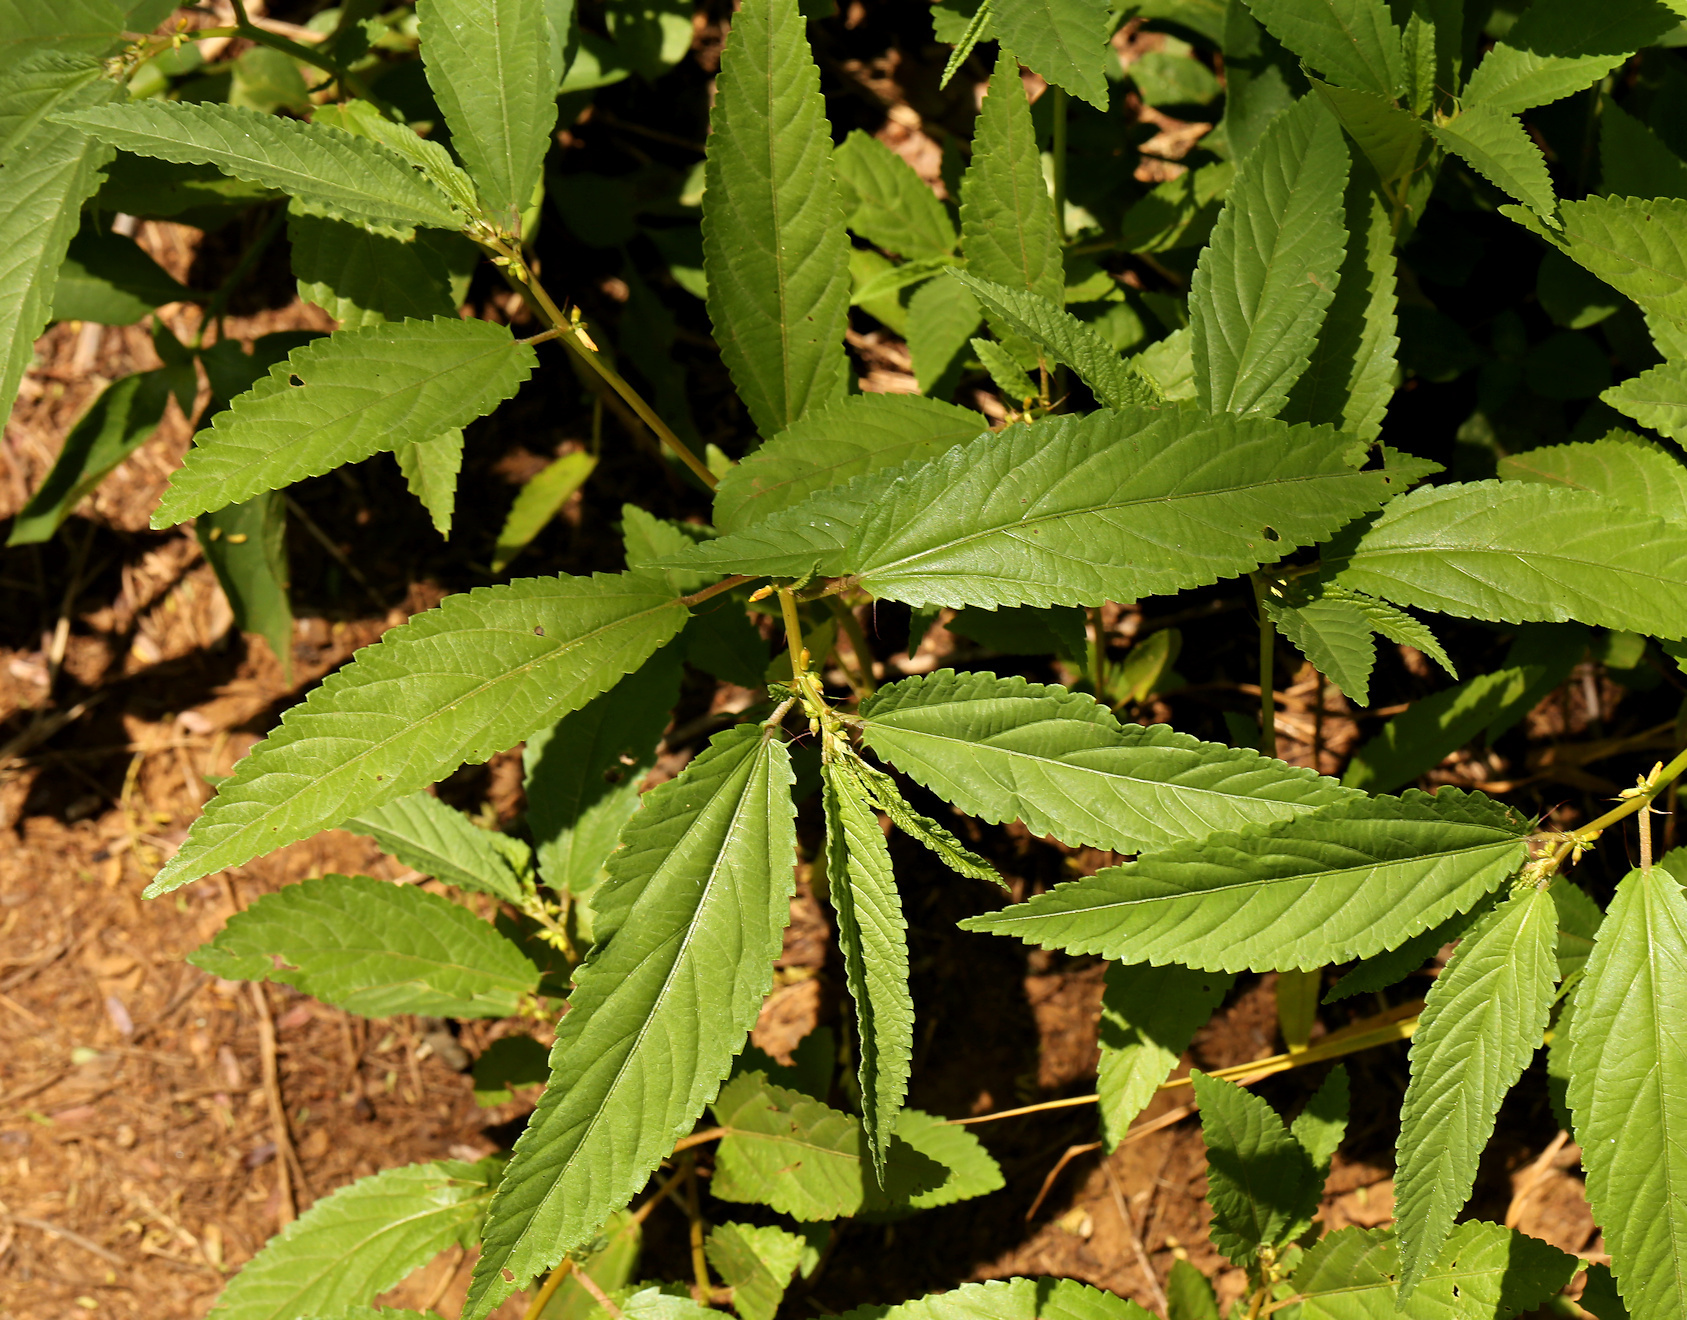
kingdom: Plantae
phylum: Tracheophyta
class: Magnoliopsida
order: Malvales
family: Malvaceae
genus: Corchorus
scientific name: Corchorus tridens
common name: Wild jute
